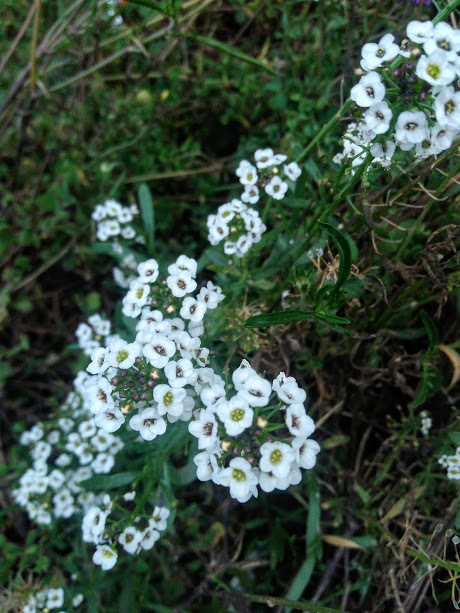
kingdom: Plantae
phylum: Tracheophyta
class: Magnoliopsida
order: Brassicales
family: Brassicaceae
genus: Lobularia
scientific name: Lobularia maritima
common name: Sweet alison
